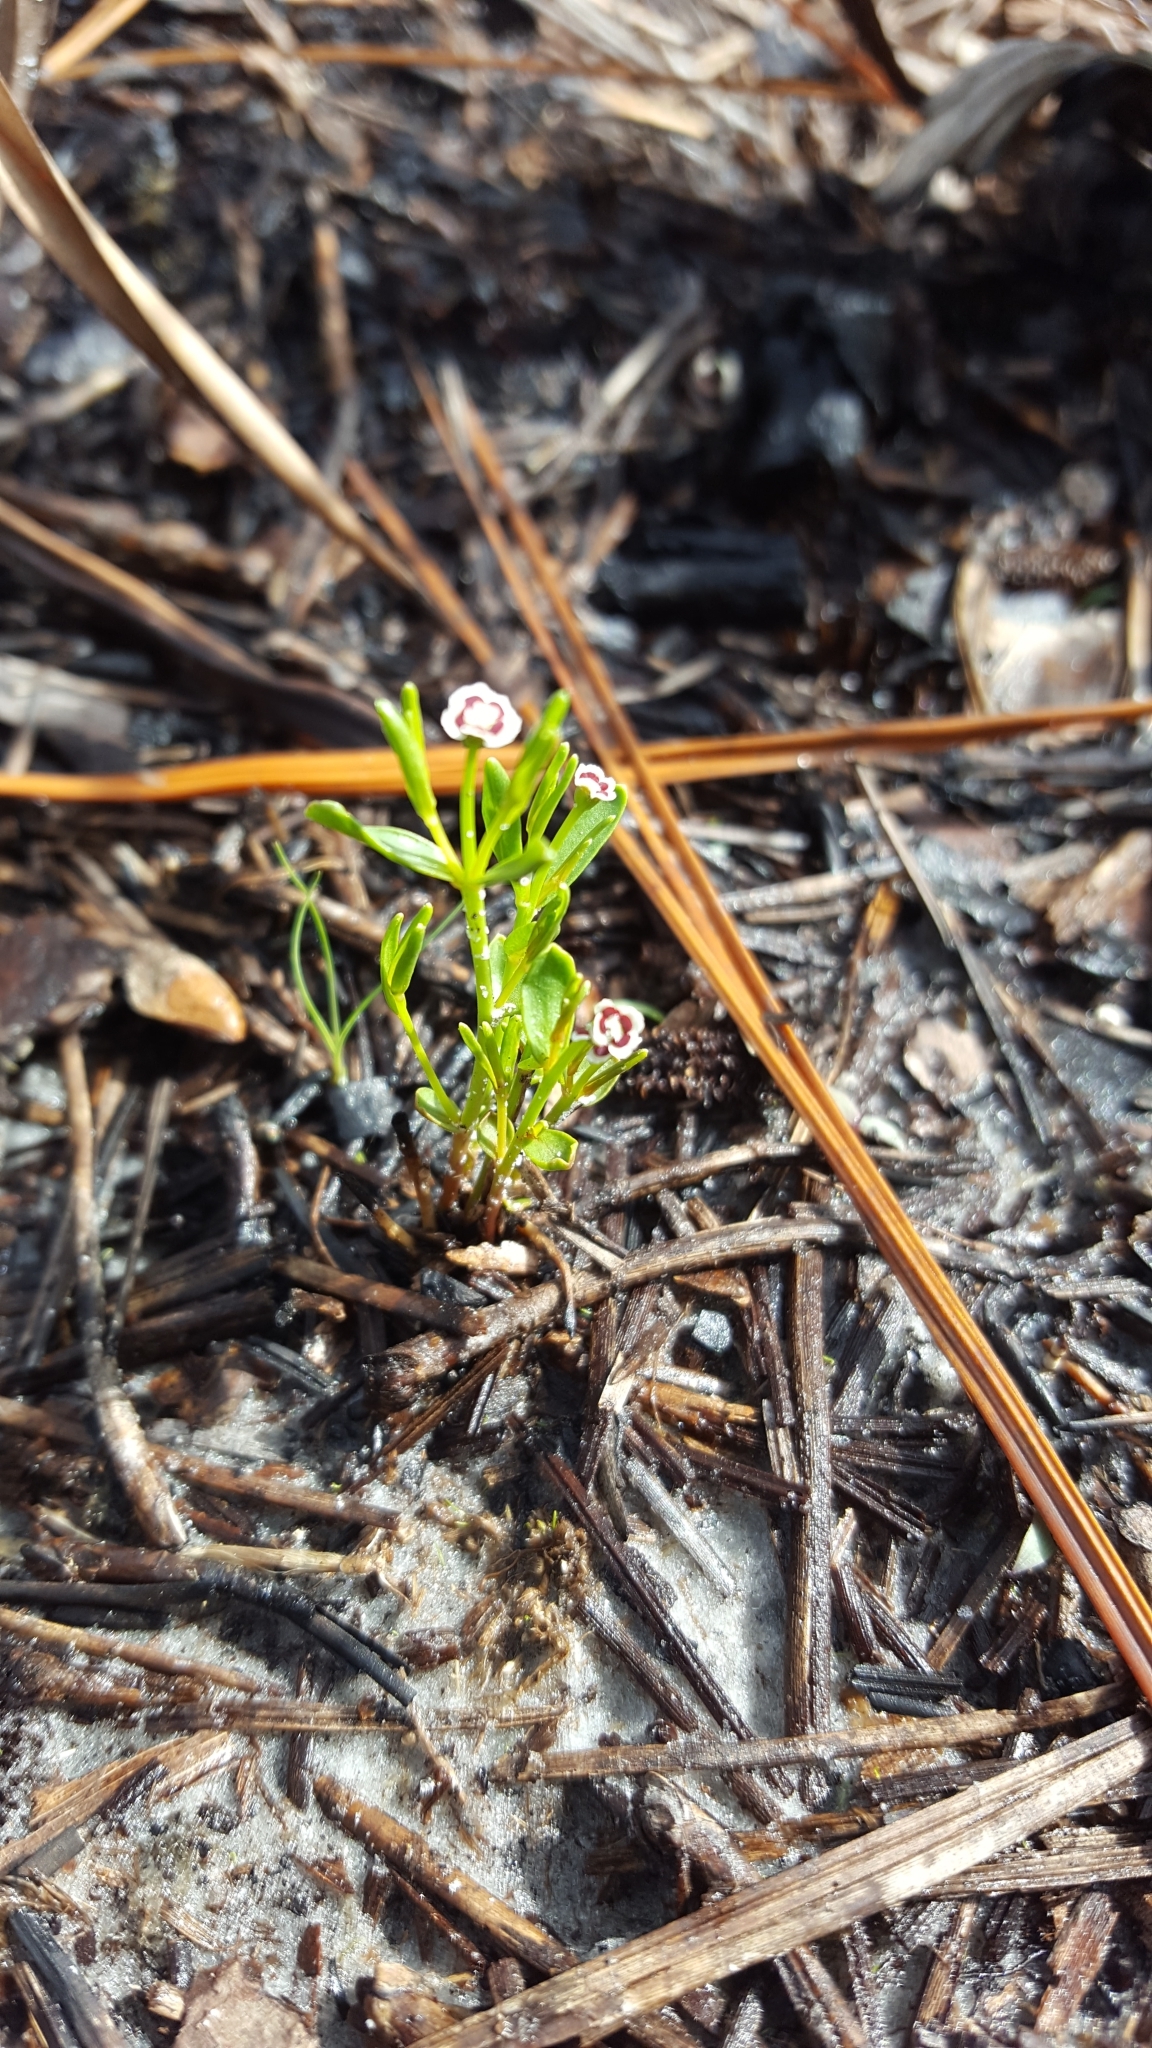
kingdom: Plantae
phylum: Tracheophyta
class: Magnoliopsida
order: Malpighiales
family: Euphorbiaceae
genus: Euphorbia
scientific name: Euphorbia polyphylla
